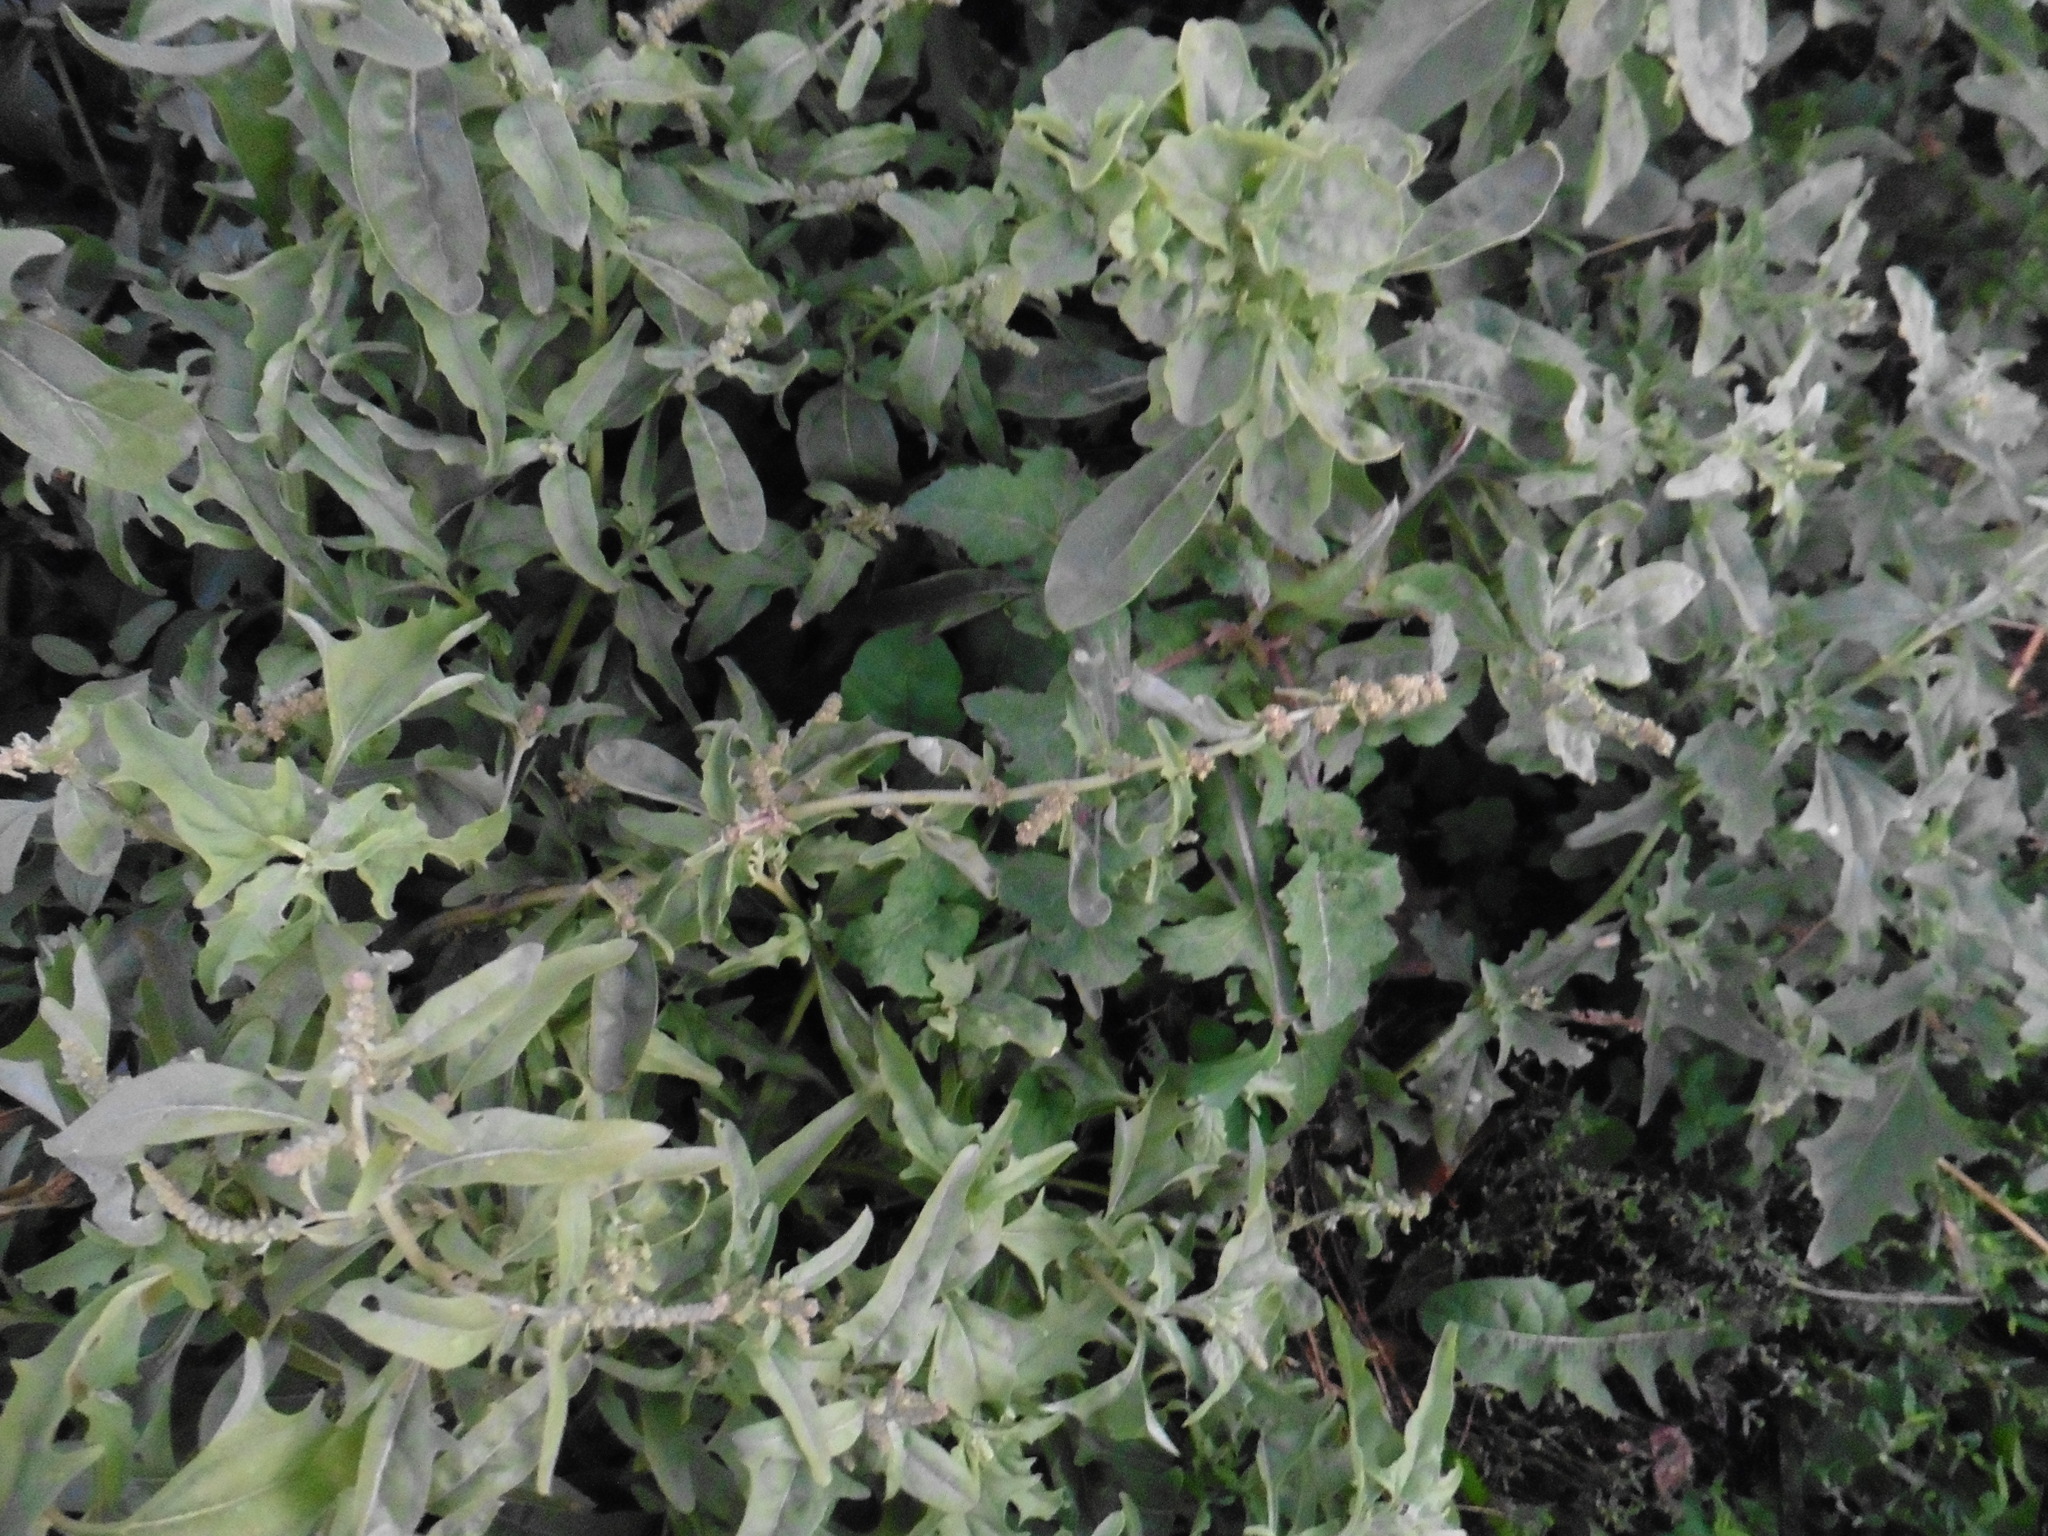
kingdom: Plantae
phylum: Tracheophyta
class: Magnoliopsida
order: Caryophyllales
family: Amaranthaceae
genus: Atriplex
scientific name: Atriplex tatarica
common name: Tatarian orache
